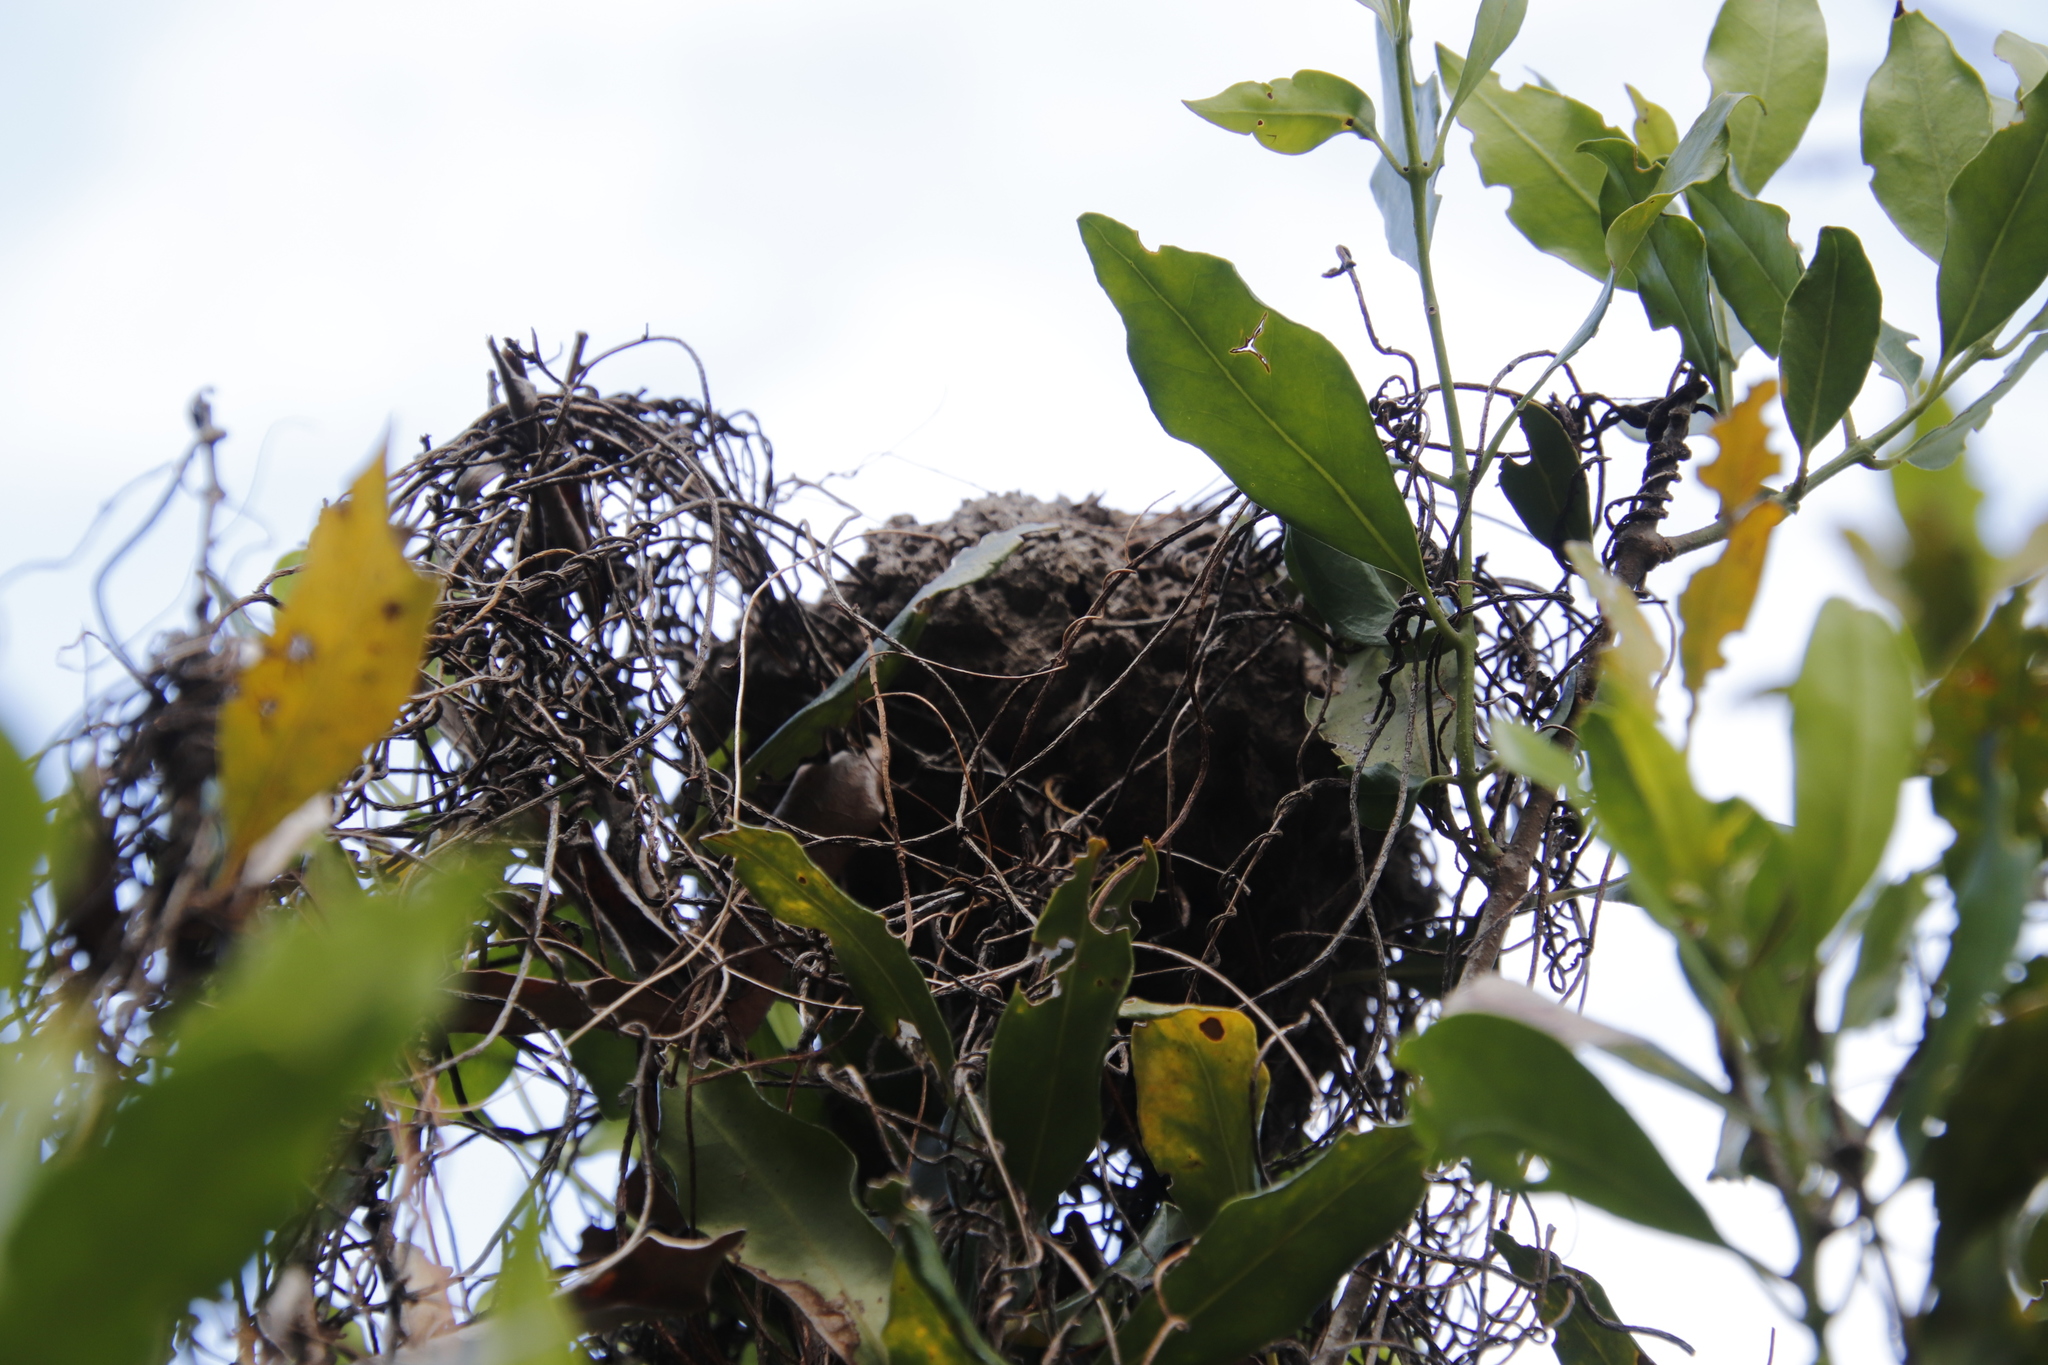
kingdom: Animalia
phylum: Arthropoda
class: Insecta
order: Hymenoptera
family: Formicidae
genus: Crematogaster
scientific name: Crematogaster peringueyi
